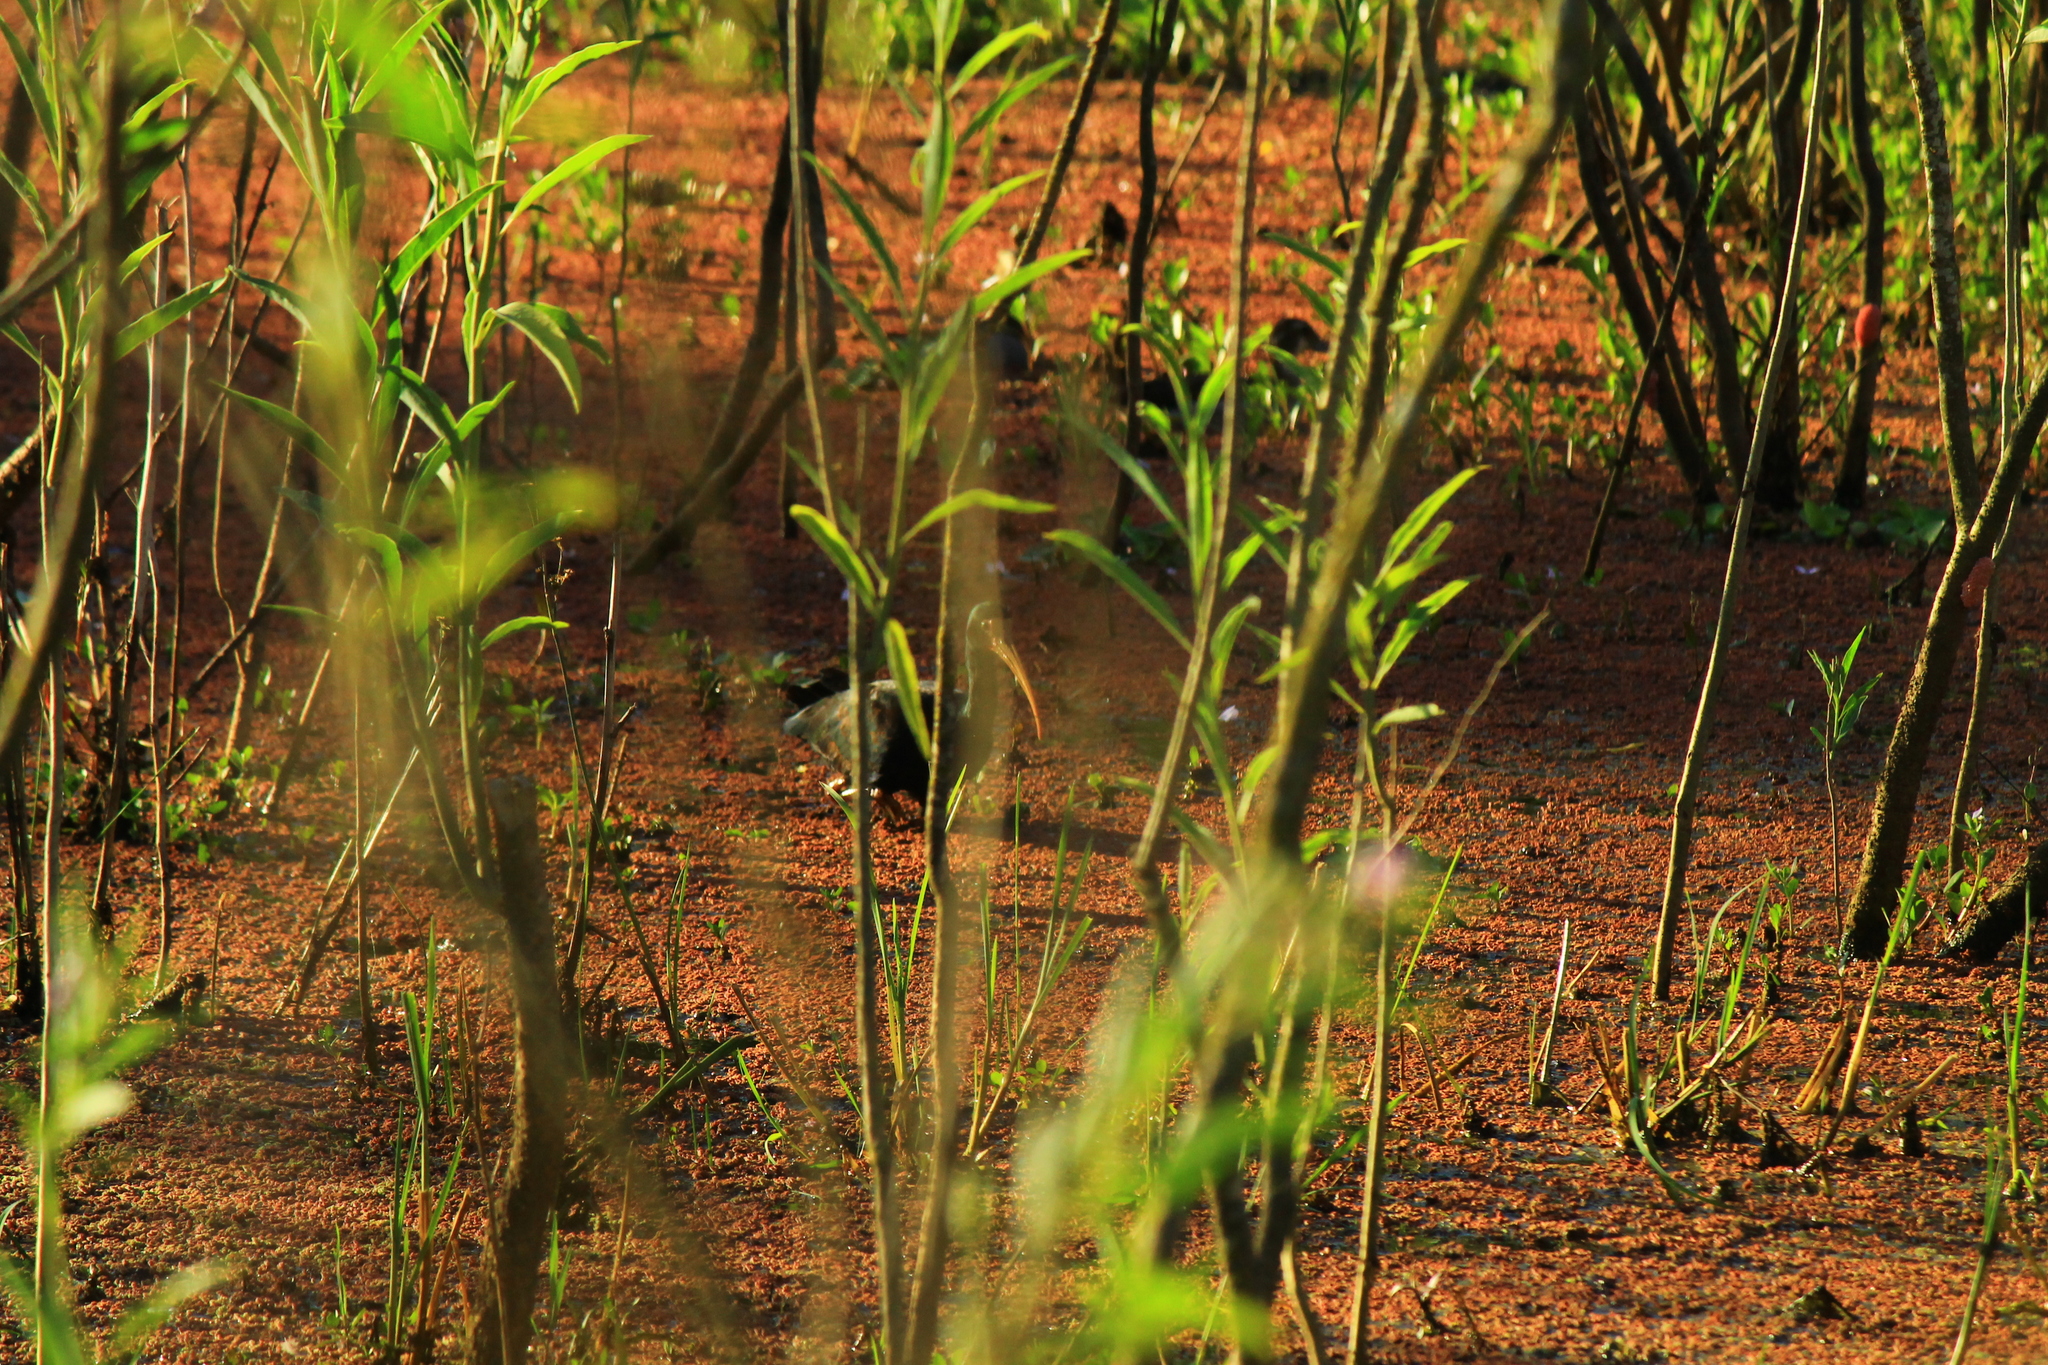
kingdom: Animalia
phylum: Chordata
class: Aves
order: Pelecaniformes
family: Threskiornithidae
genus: Phimosus
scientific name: Phimosus infuscatus
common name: Bare-faced ibis
